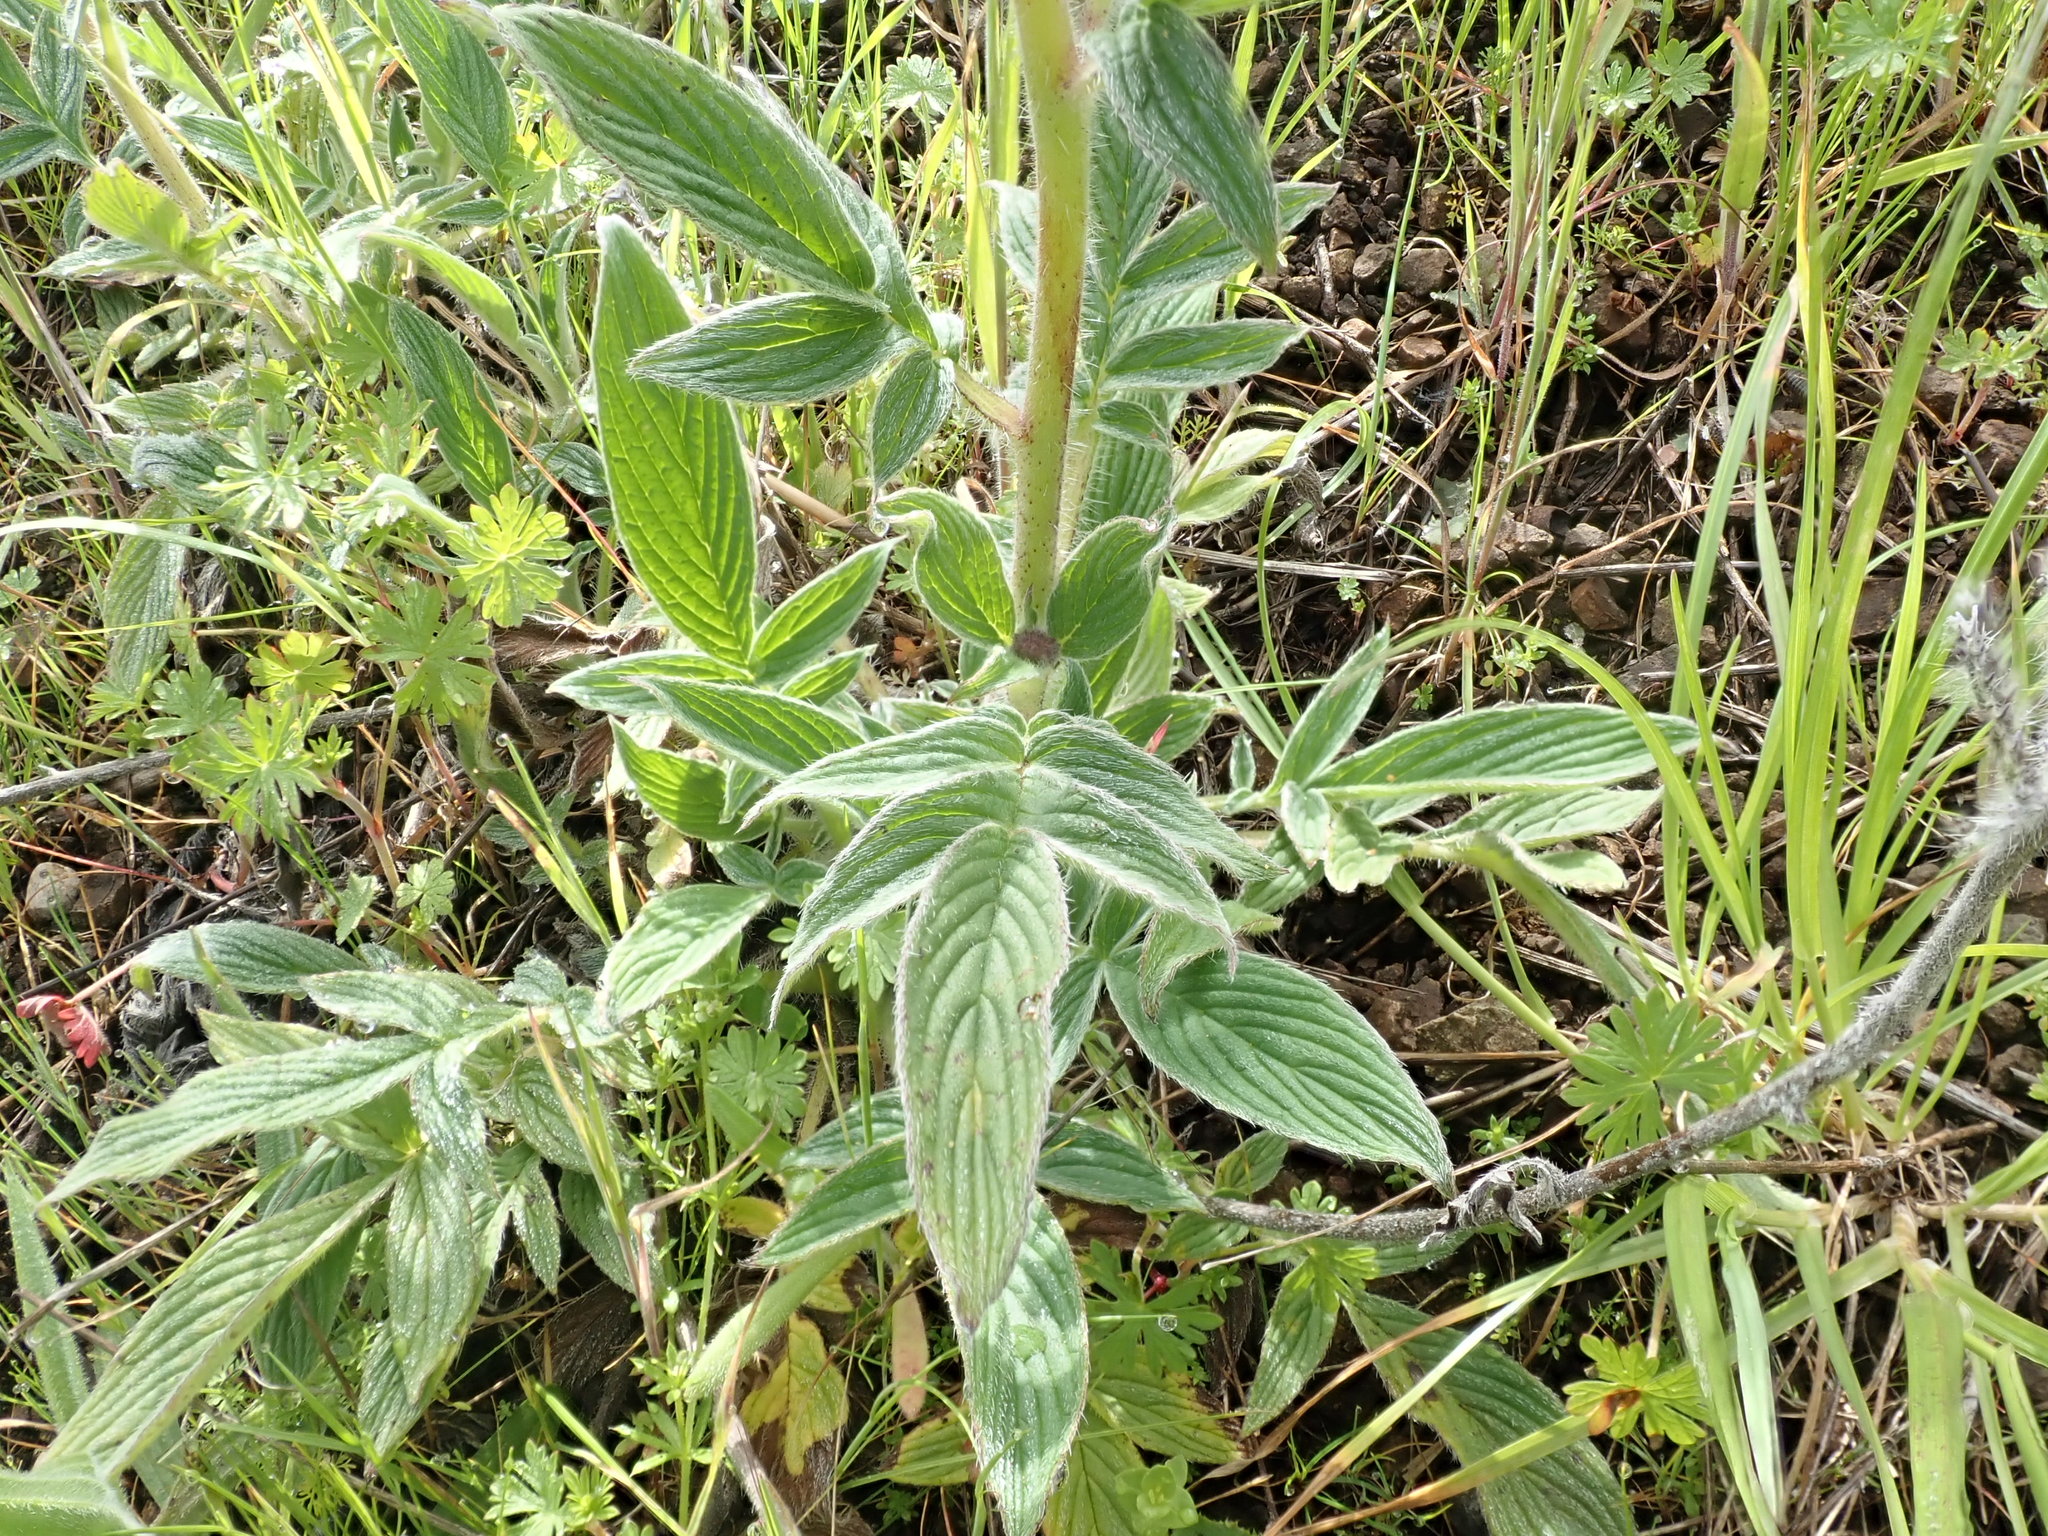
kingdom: Plantae
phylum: Tracheophyta
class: Magnoliopsida
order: Boraginales
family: Hydrophyllaceae
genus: Phacelia
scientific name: Phacelia californica
